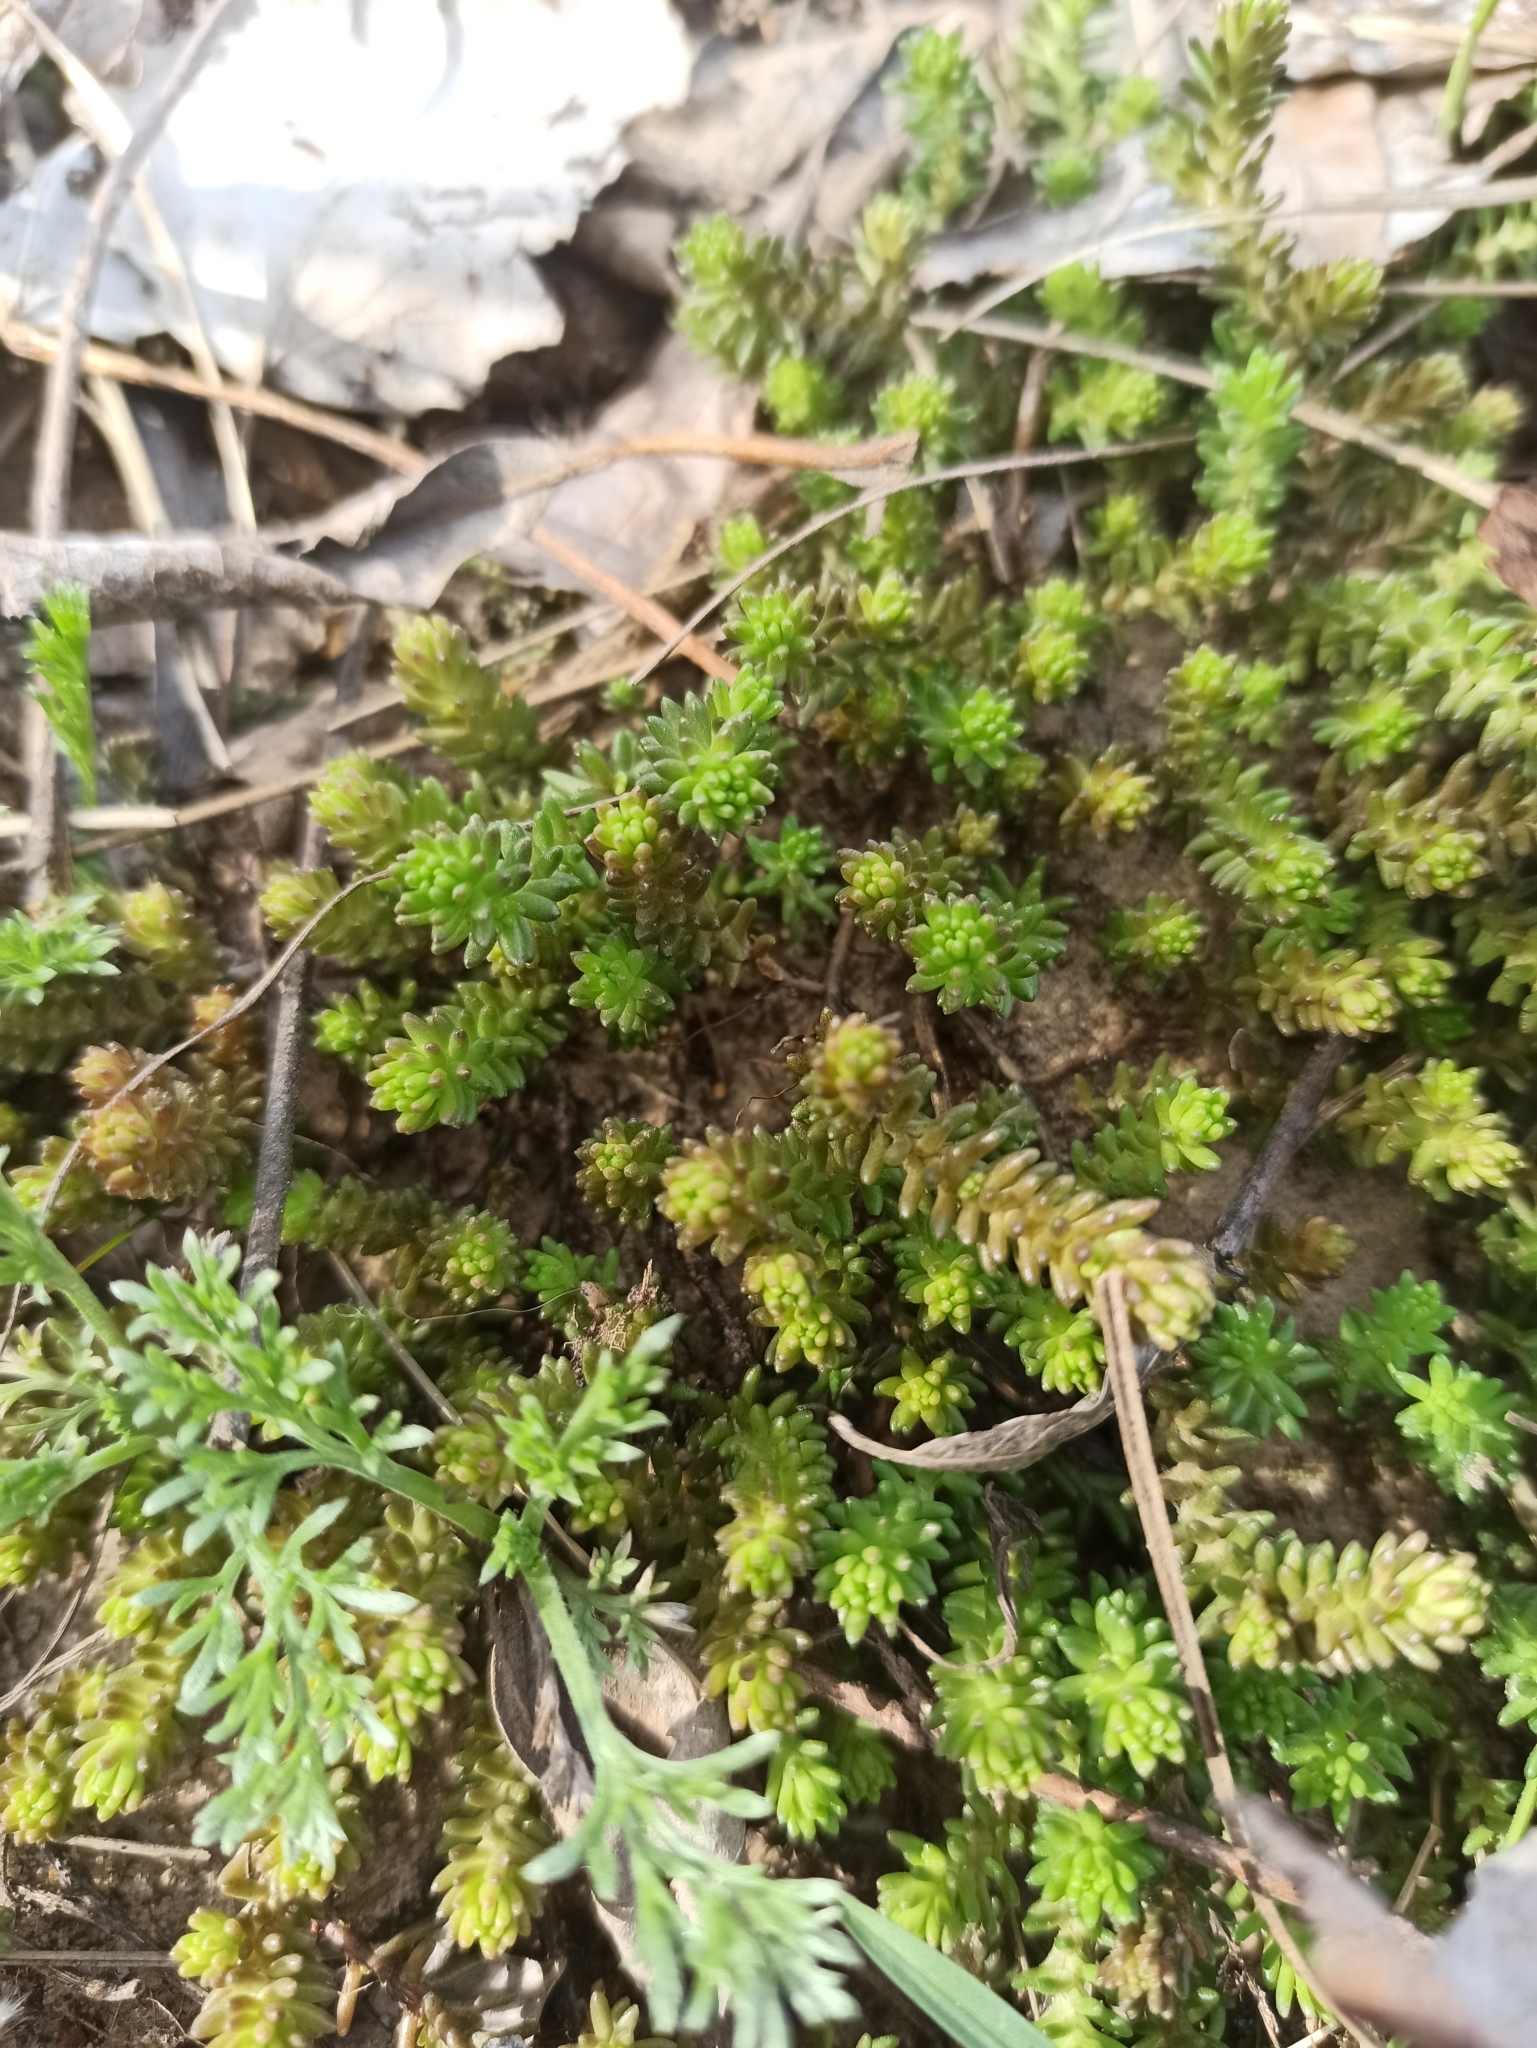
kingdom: Plantae
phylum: Tracheophyta
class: Magnoliopsida
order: Saxifragales
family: Crassulaceae
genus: Sedum
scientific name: Sedum sexangulare
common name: Tasteless stonecrop
